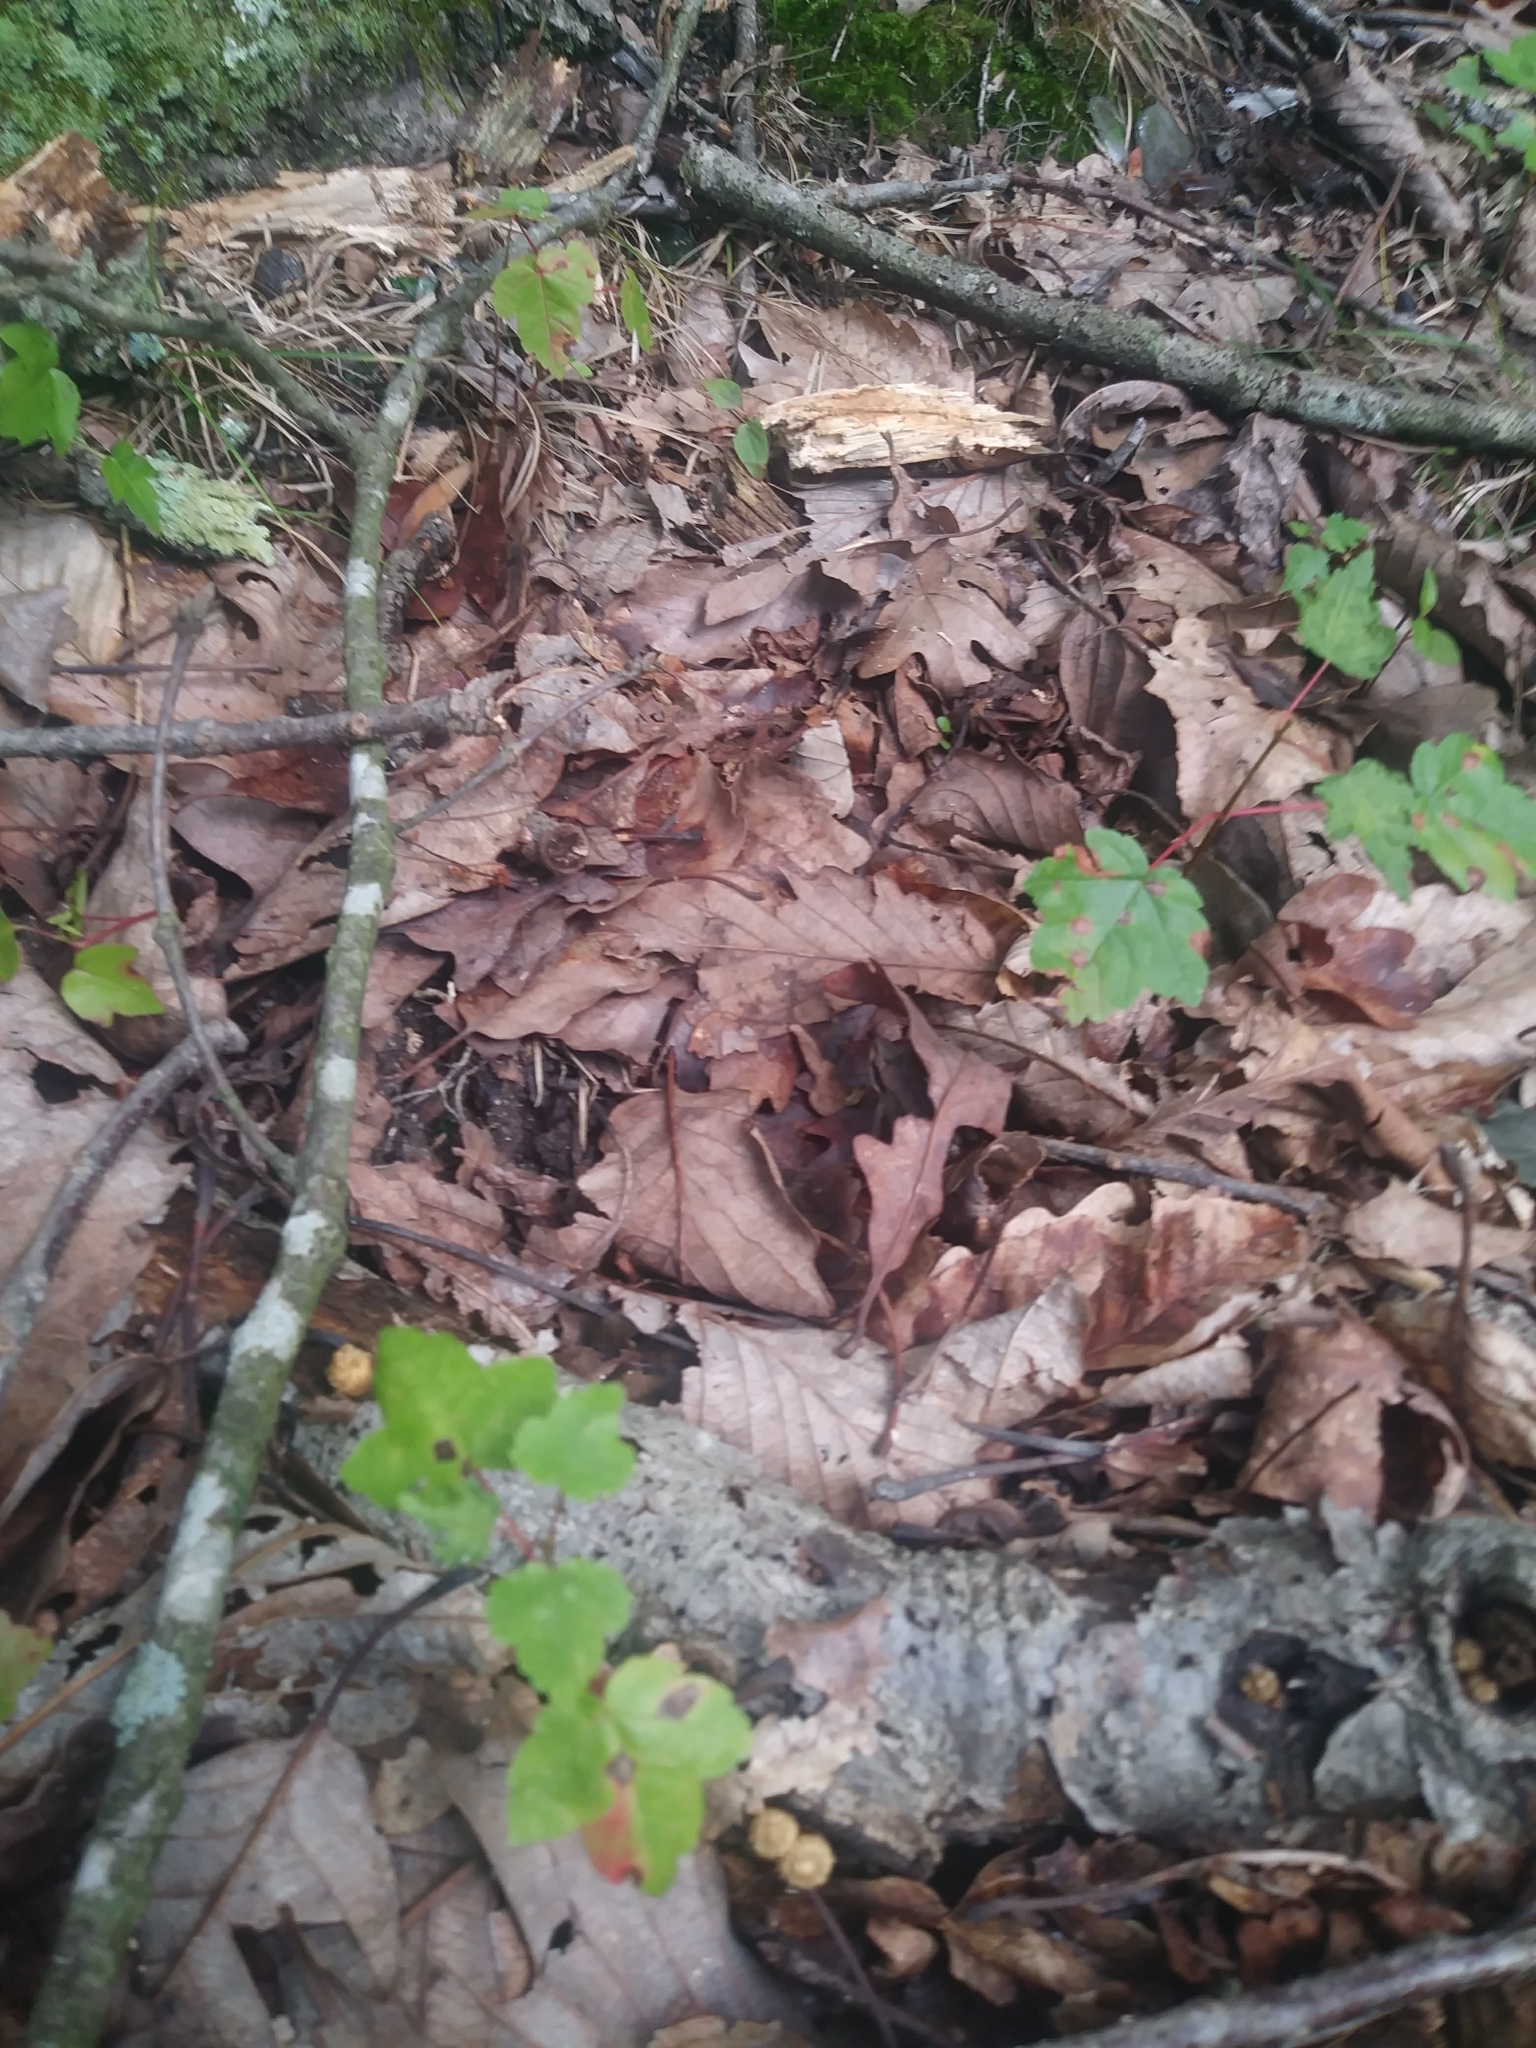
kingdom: Animalia
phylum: Chordata
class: Amphibia
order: Anura
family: Ranidae
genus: Lithobates
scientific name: Lithobates sylvaticus
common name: Wood frog
